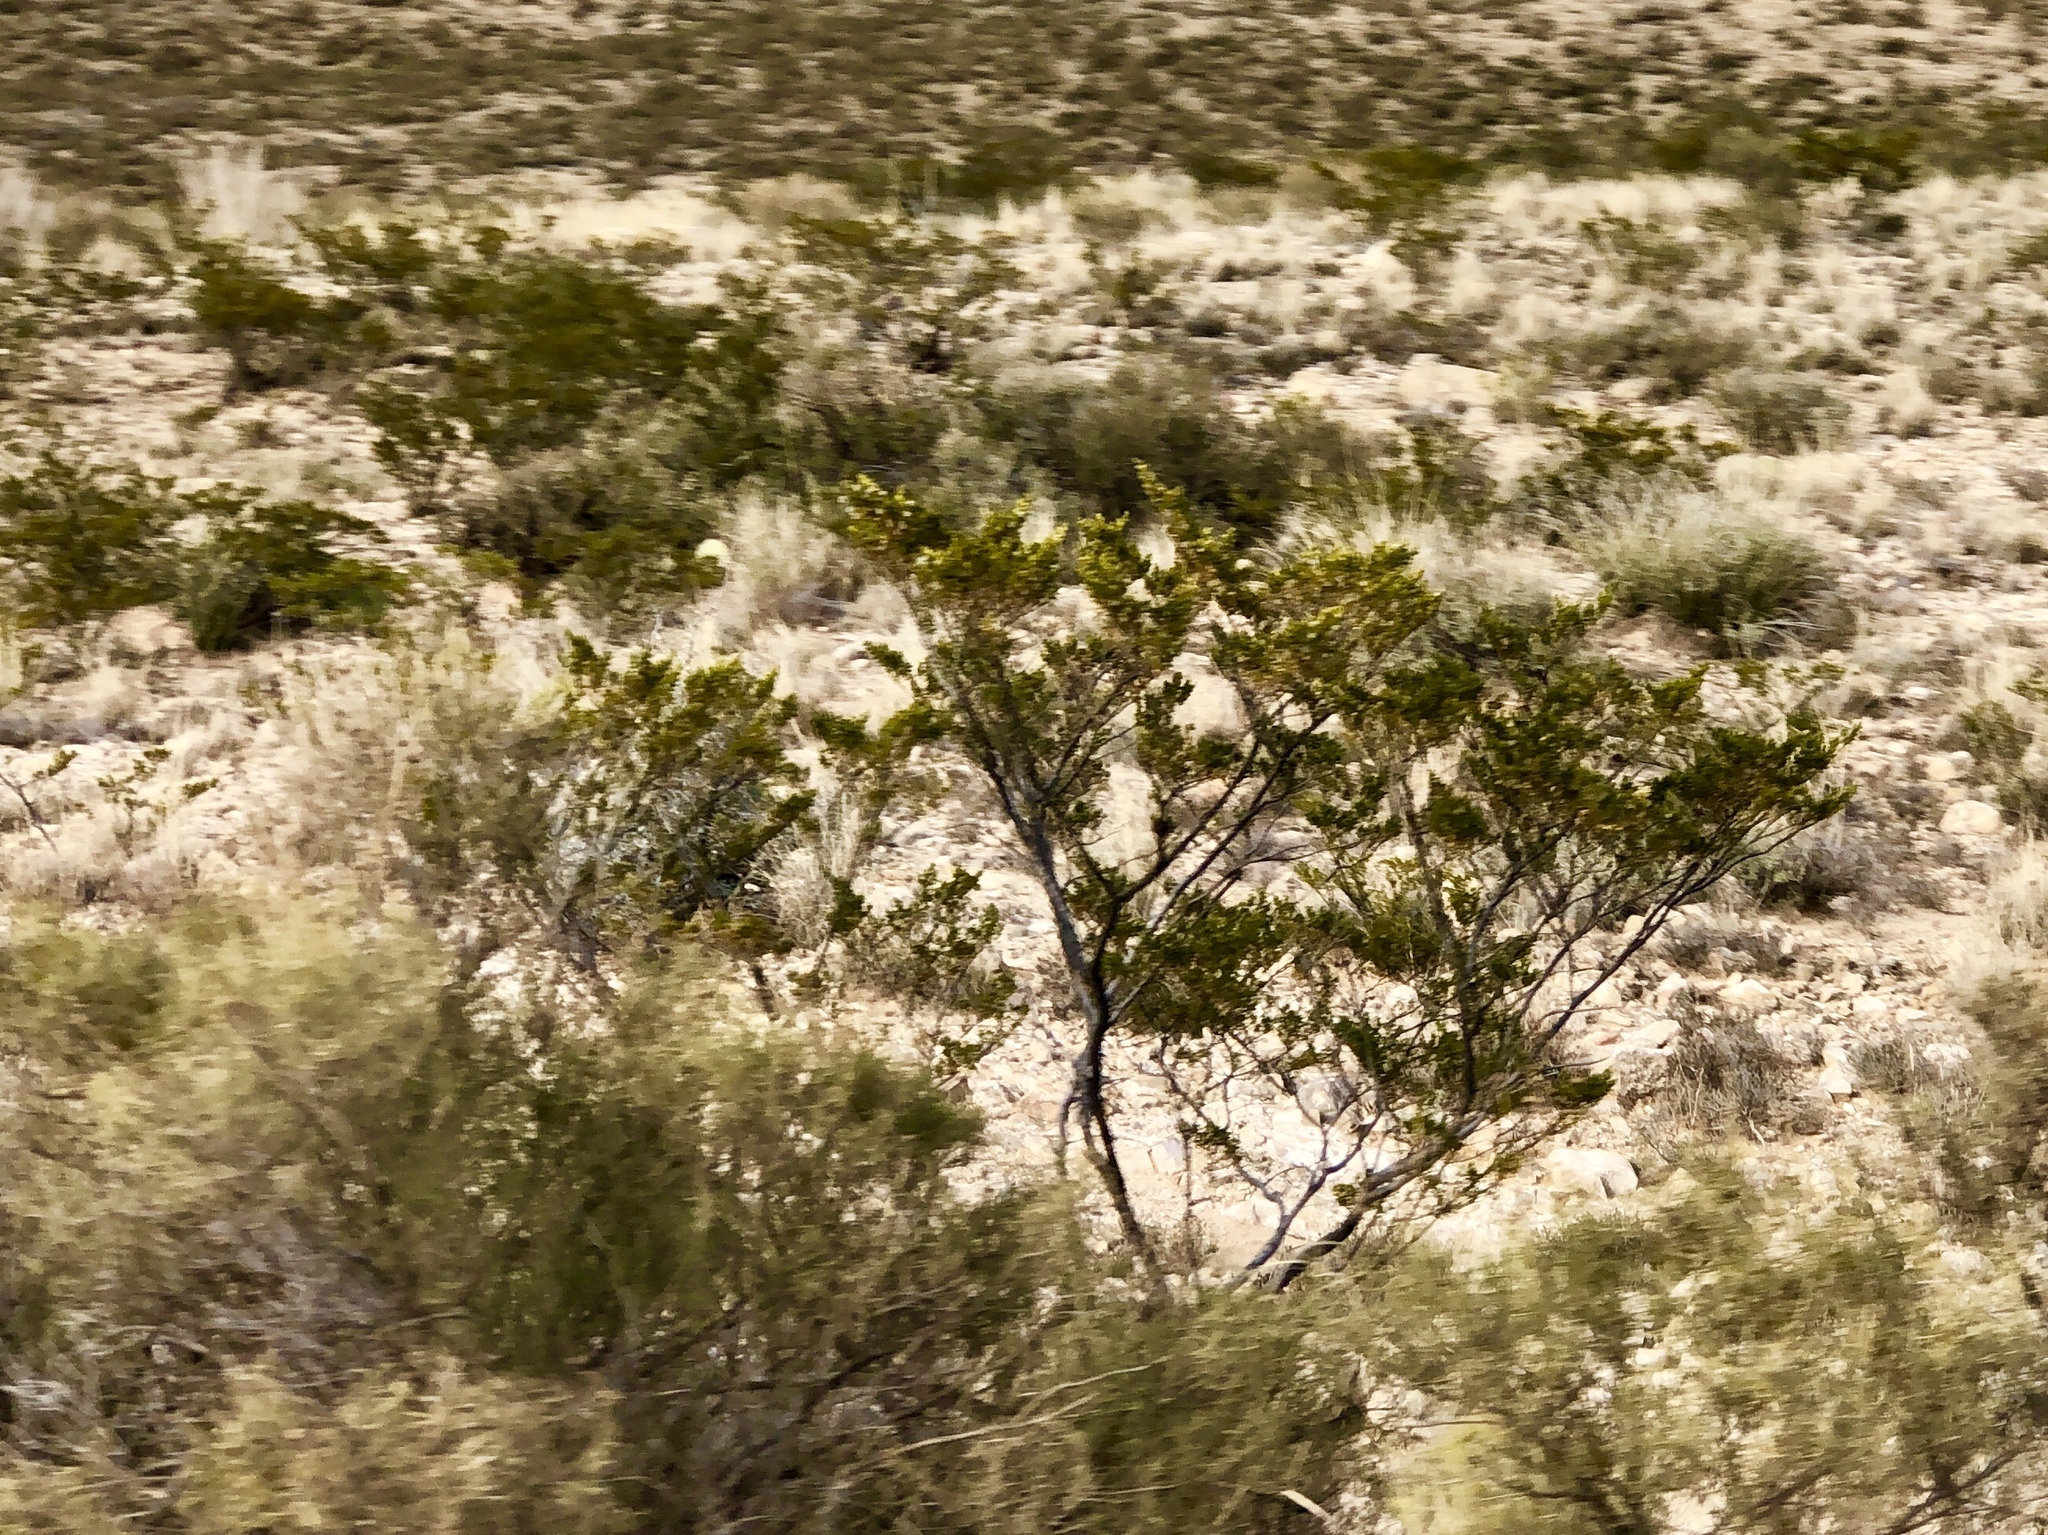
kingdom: Plantae
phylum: Tracheophyta
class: Magnoliopsida
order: Zygophyllales
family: Zygophyllaceae
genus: Larrea
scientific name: Larrea tridentata
